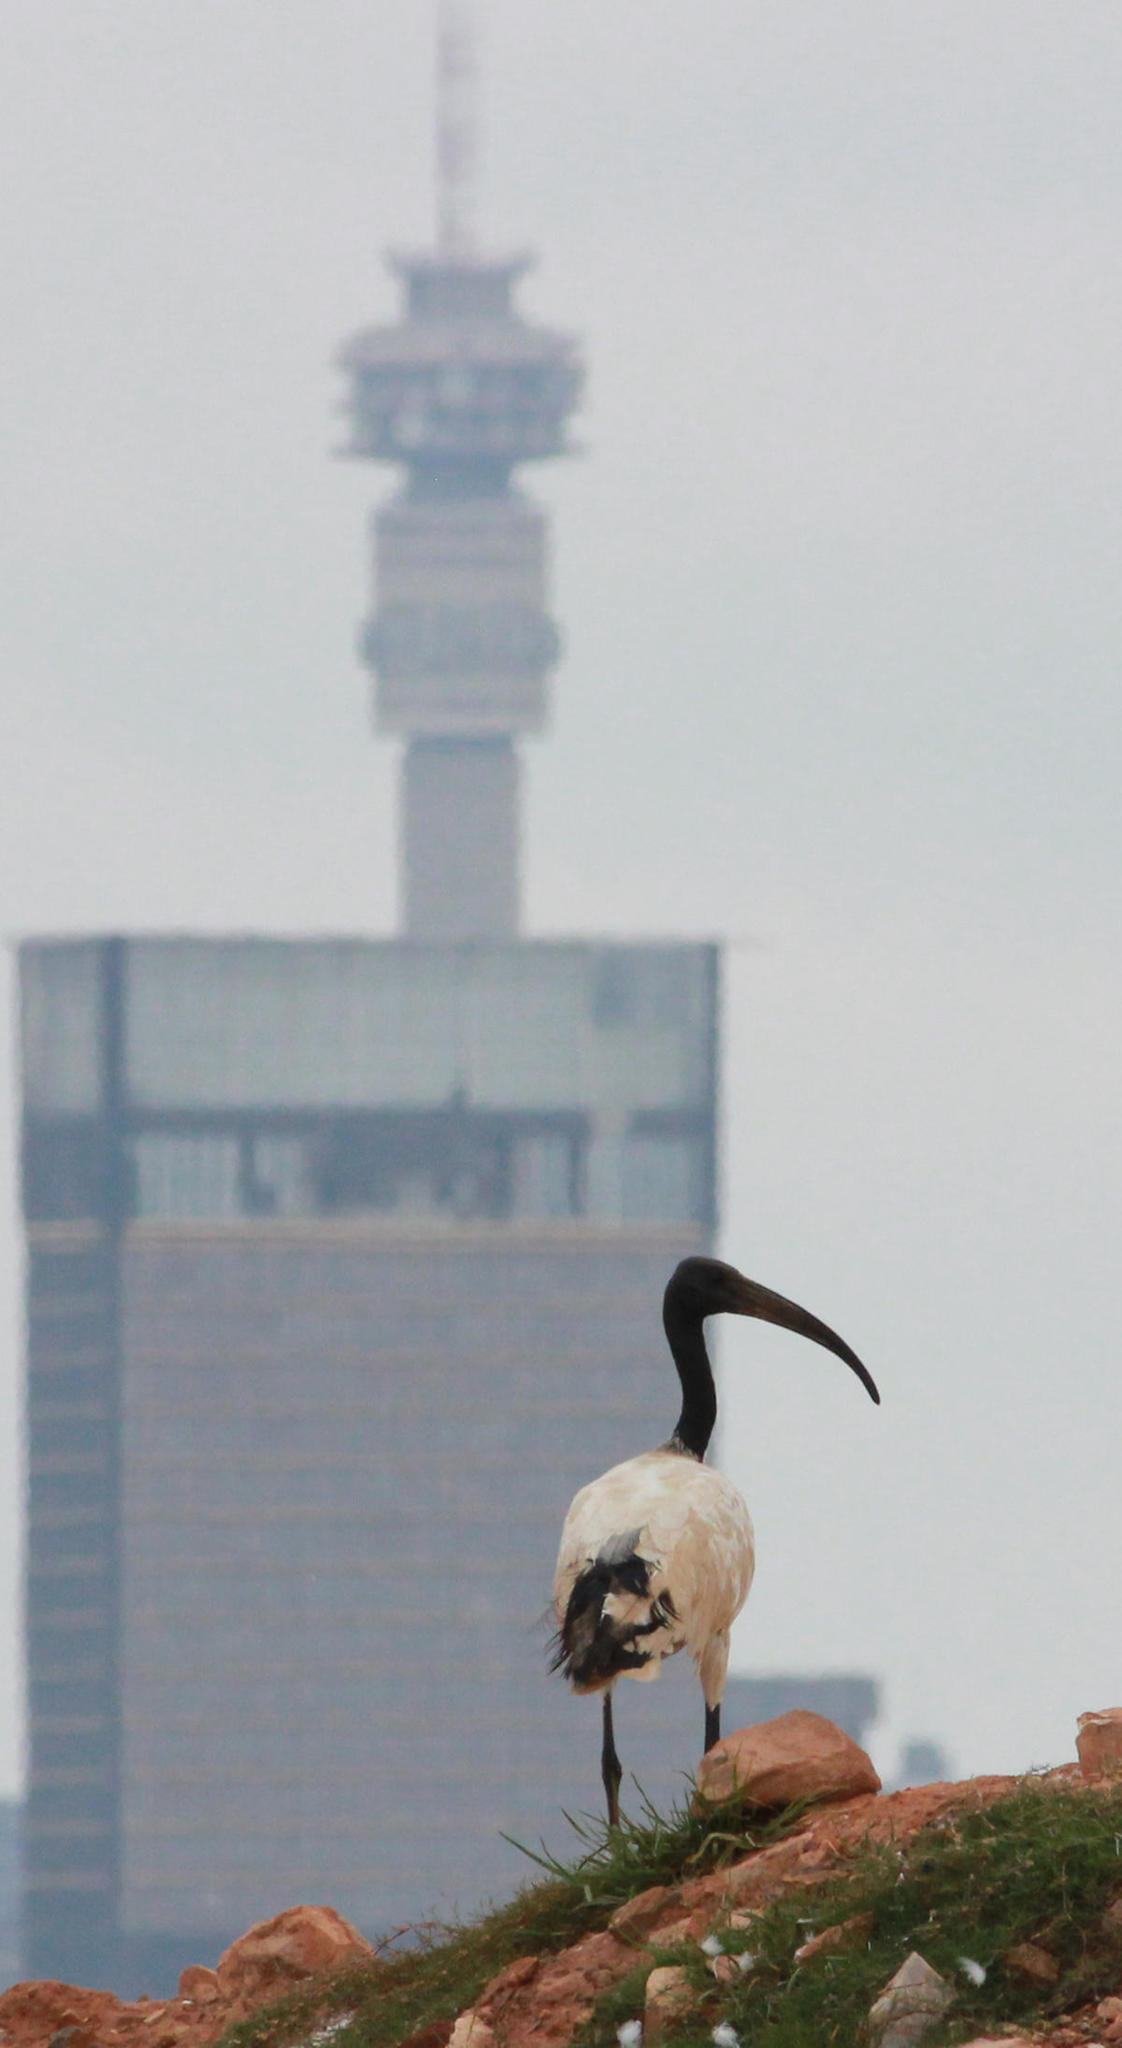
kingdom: Animalia
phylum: Chordata
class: Aves
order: Pelecaniformes
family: Threskiornithidae
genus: Threskiornis
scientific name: Threskiornis aethiopicus
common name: Sacred ibis
